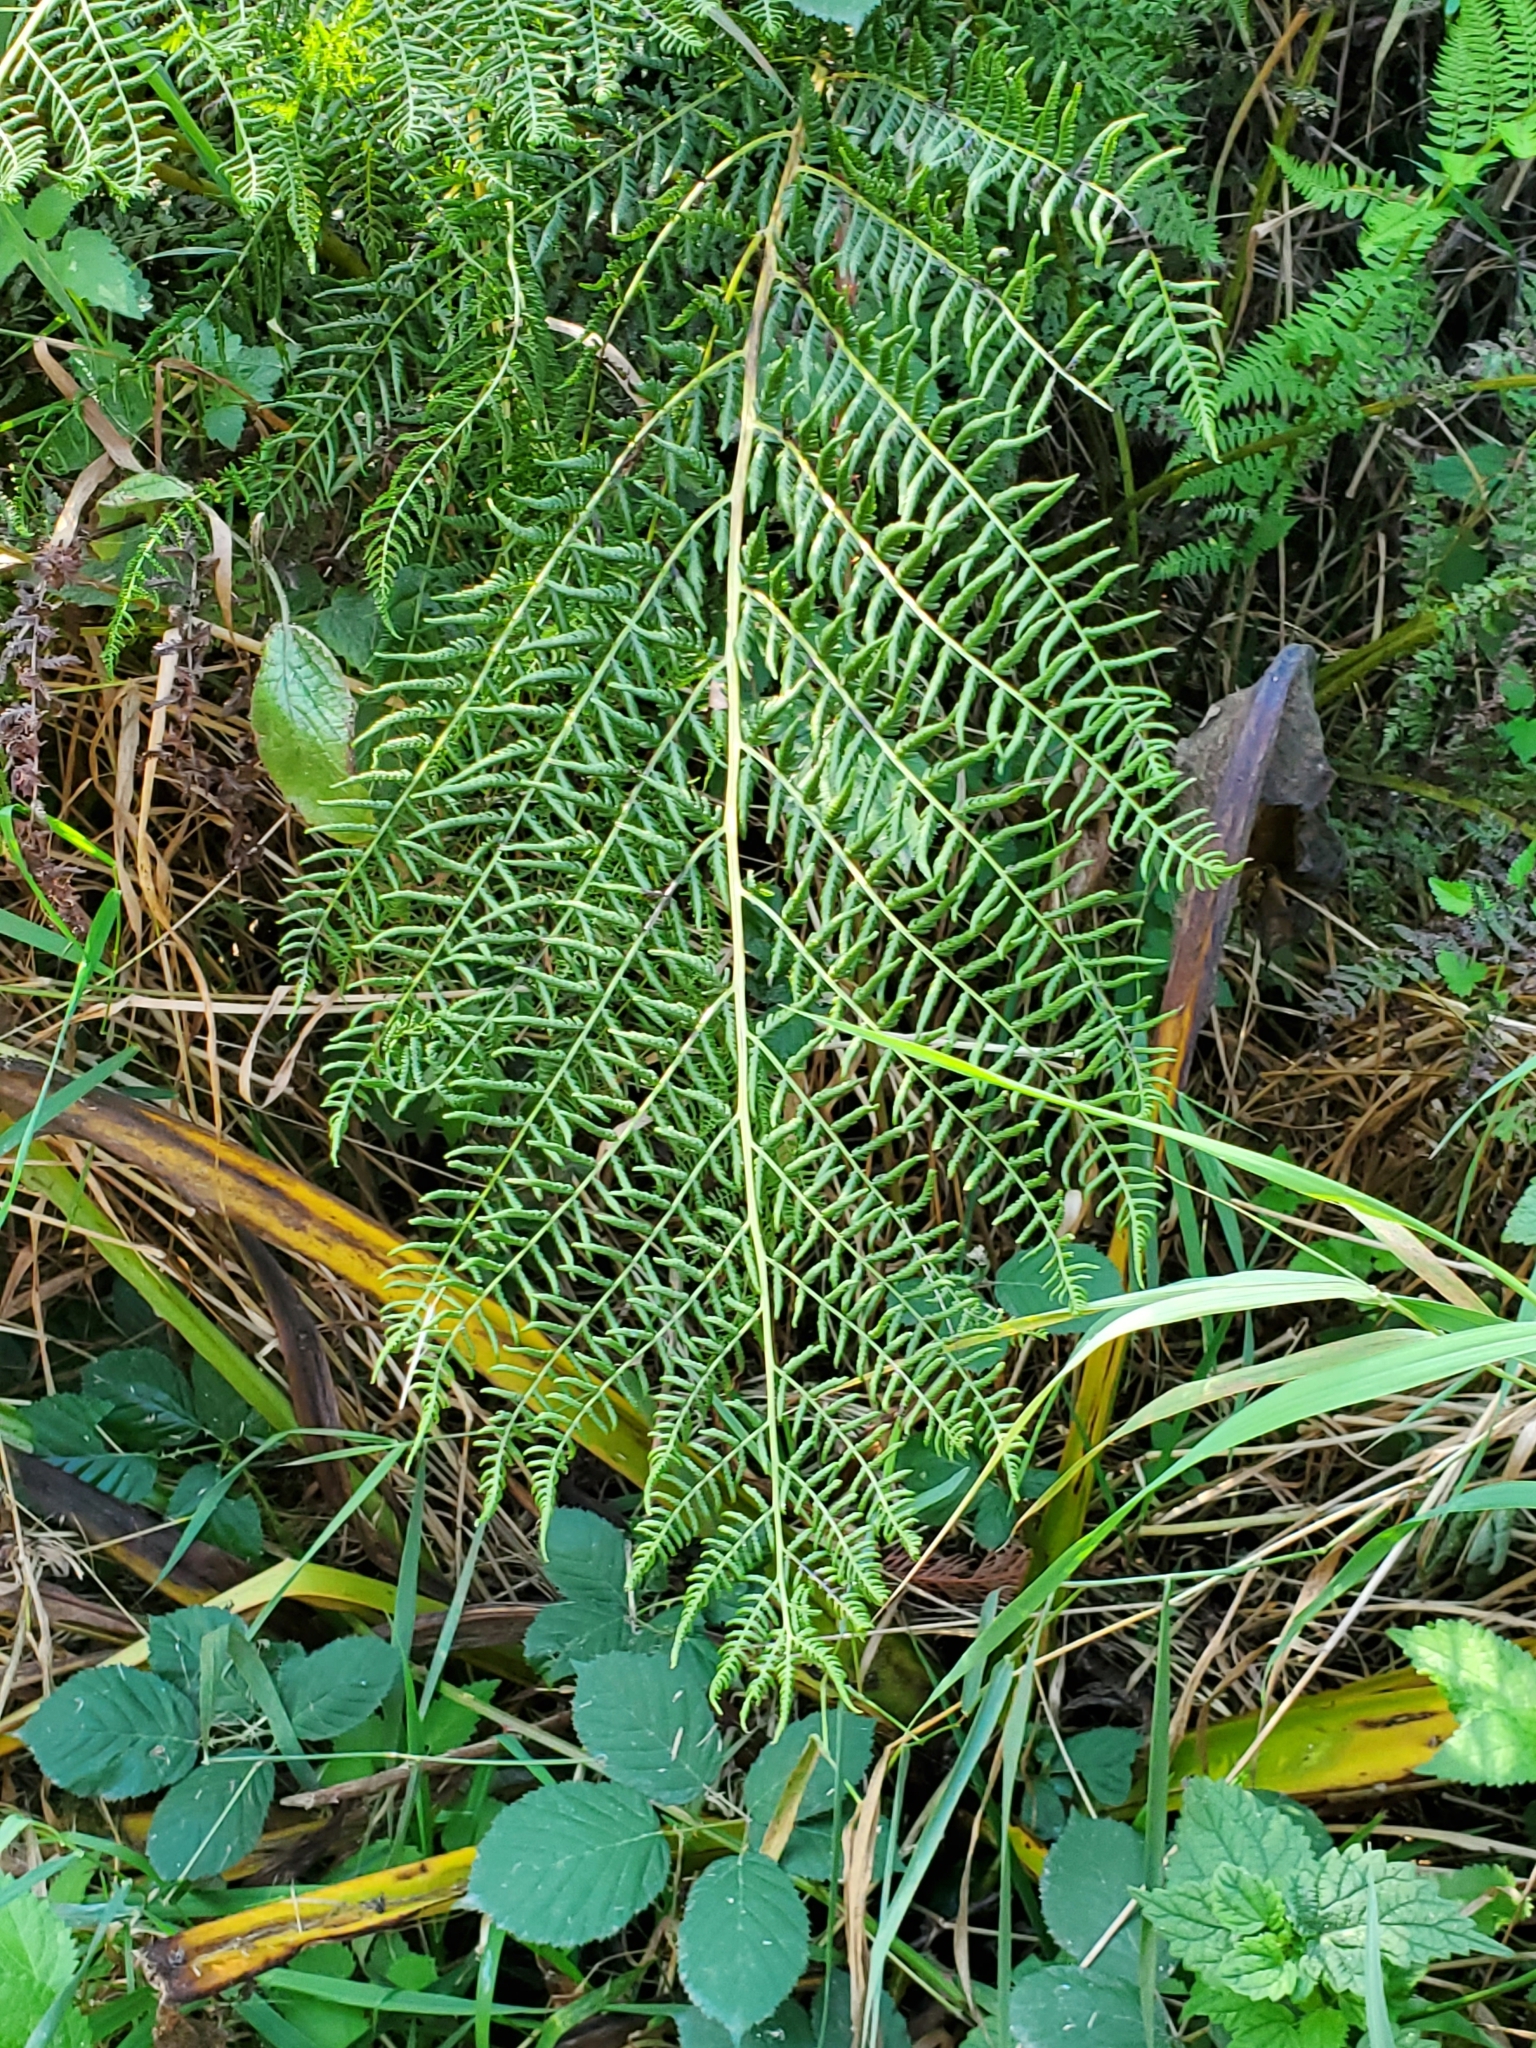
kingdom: Plantae
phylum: Tracheophyta
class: Polypodiopsida
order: Polypodiales
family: Athyriaceae
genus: Athyrium
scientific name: Athyrium filix-femina
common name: Lady fern
